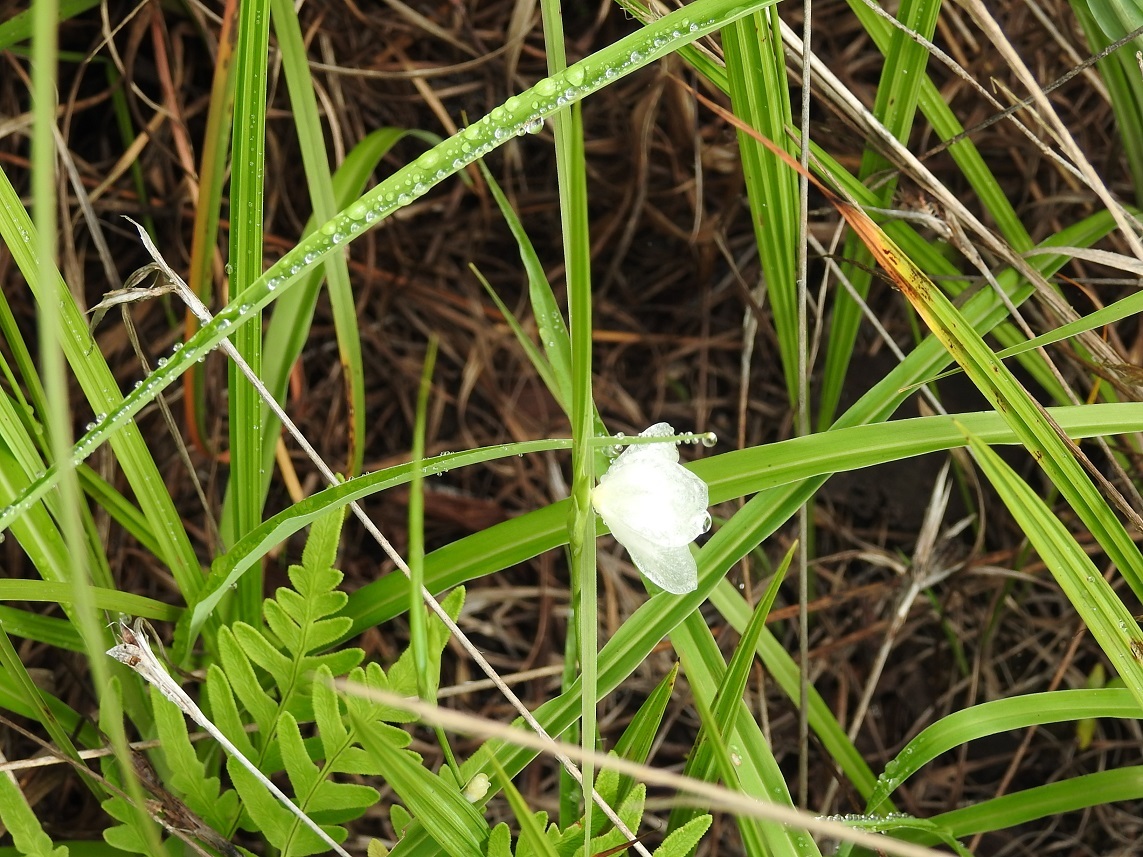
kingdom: Plantae
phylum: Tracheophyta
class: Liliopsida
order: Asparagales
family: Iridaceae
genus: Cipura
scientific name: Cipura campanulata
